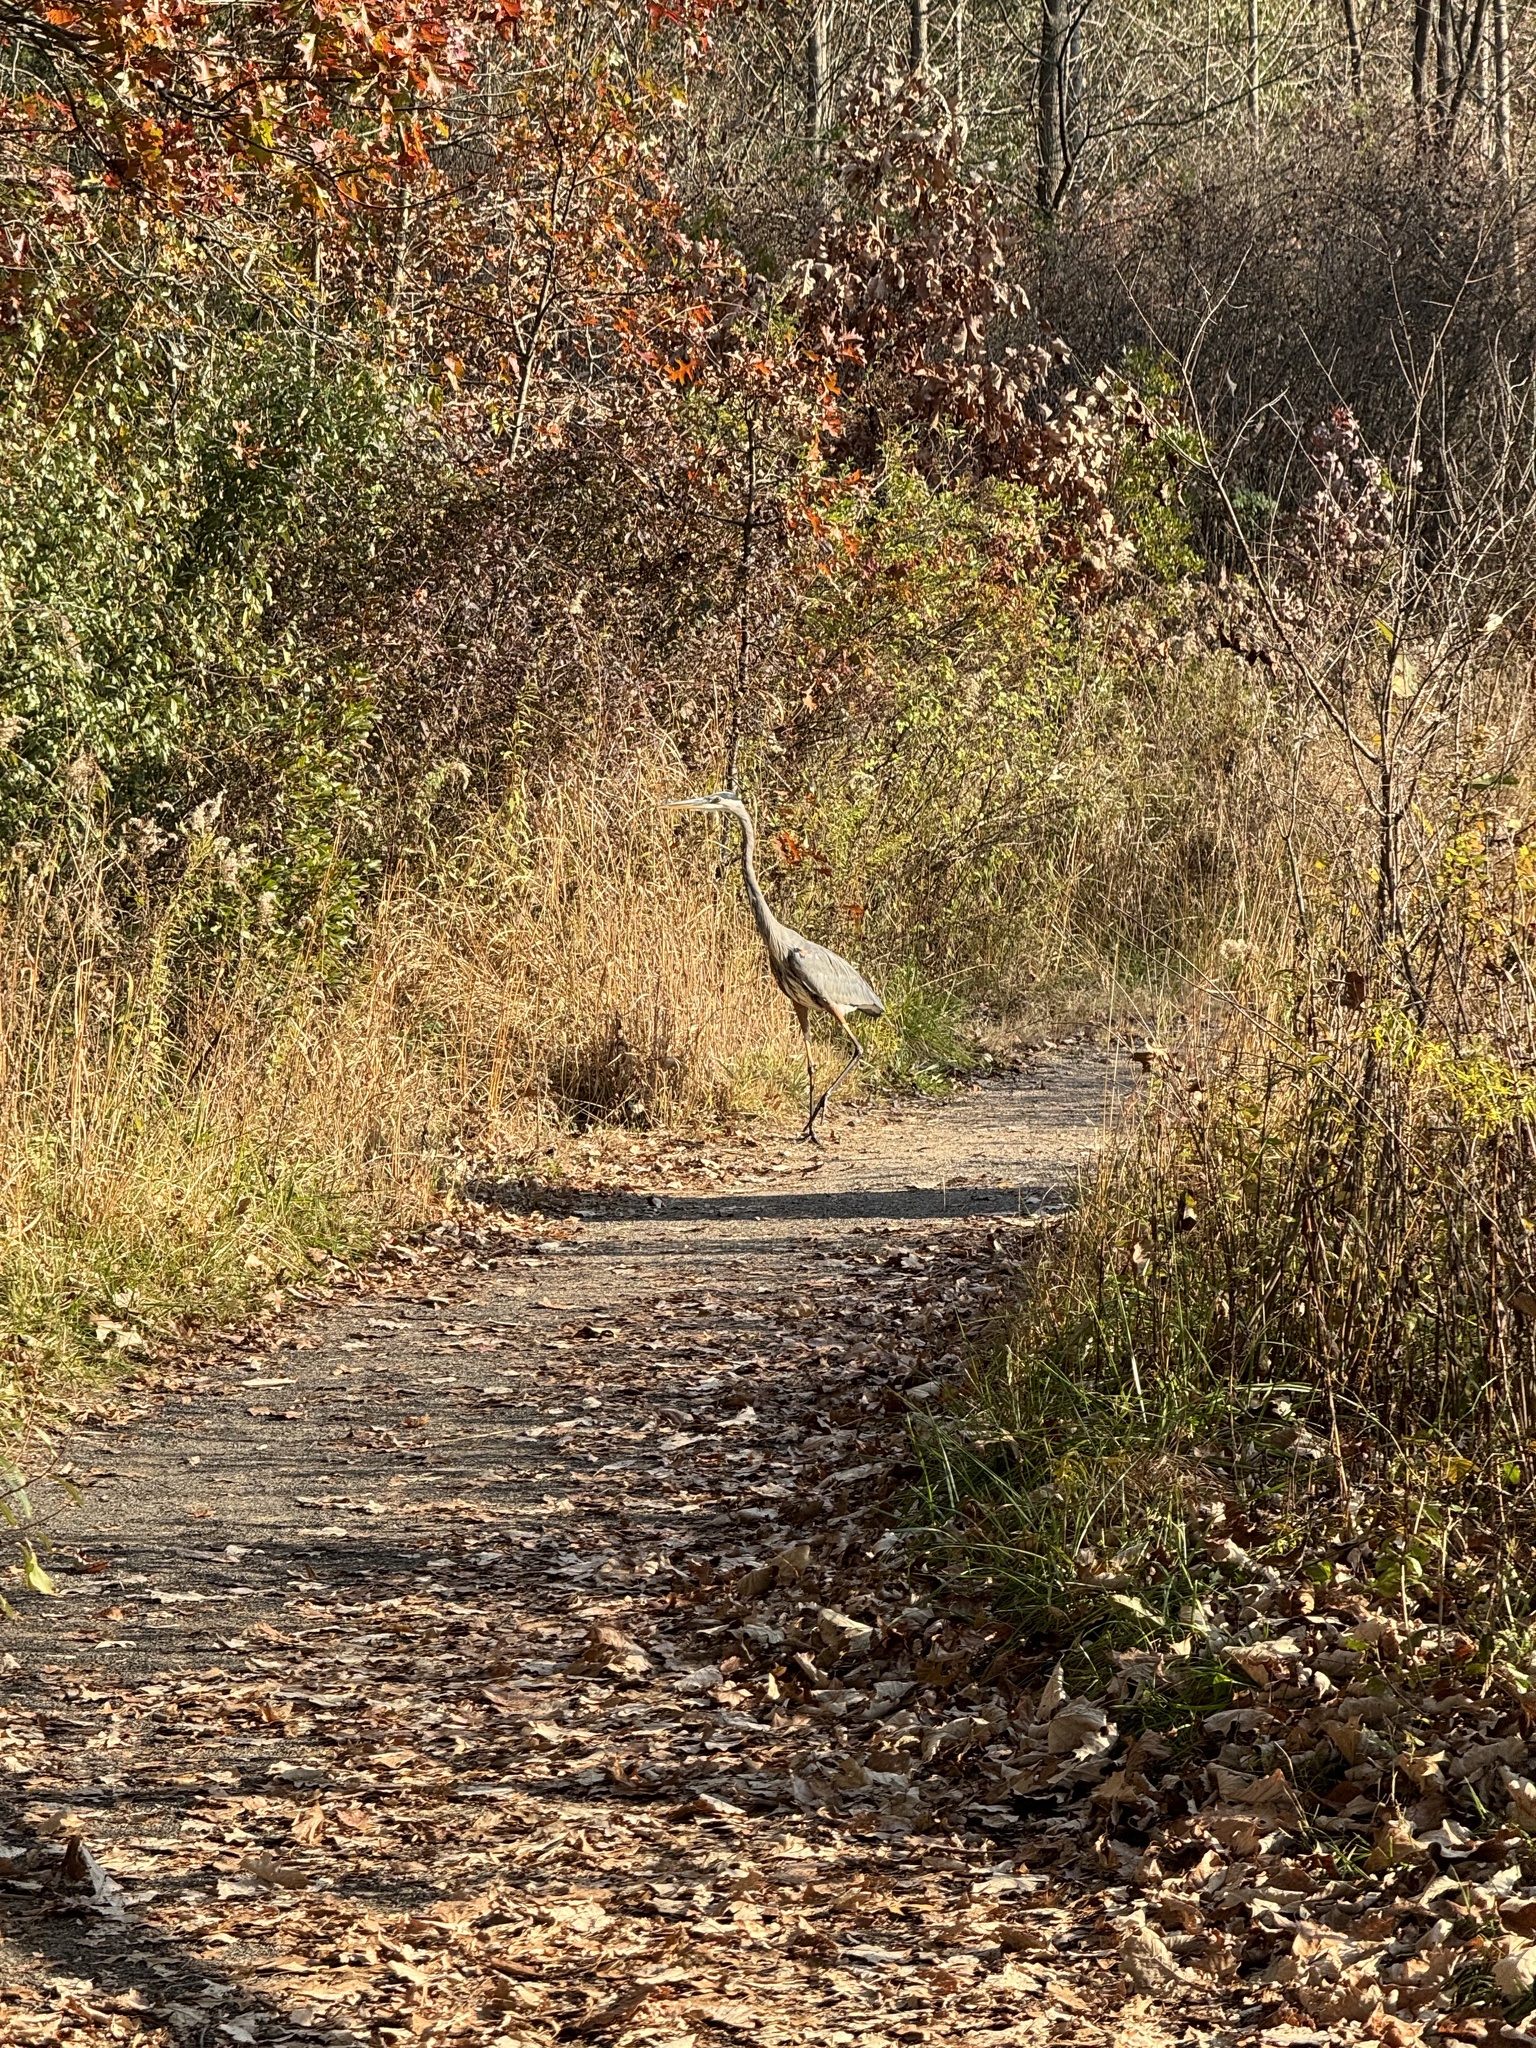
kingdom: Animalia
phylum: Chordata
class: Aves
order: Pelecaniformes
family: Ardeidae
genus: Ardea
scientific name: Ardea herodias
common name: Great blue heron
